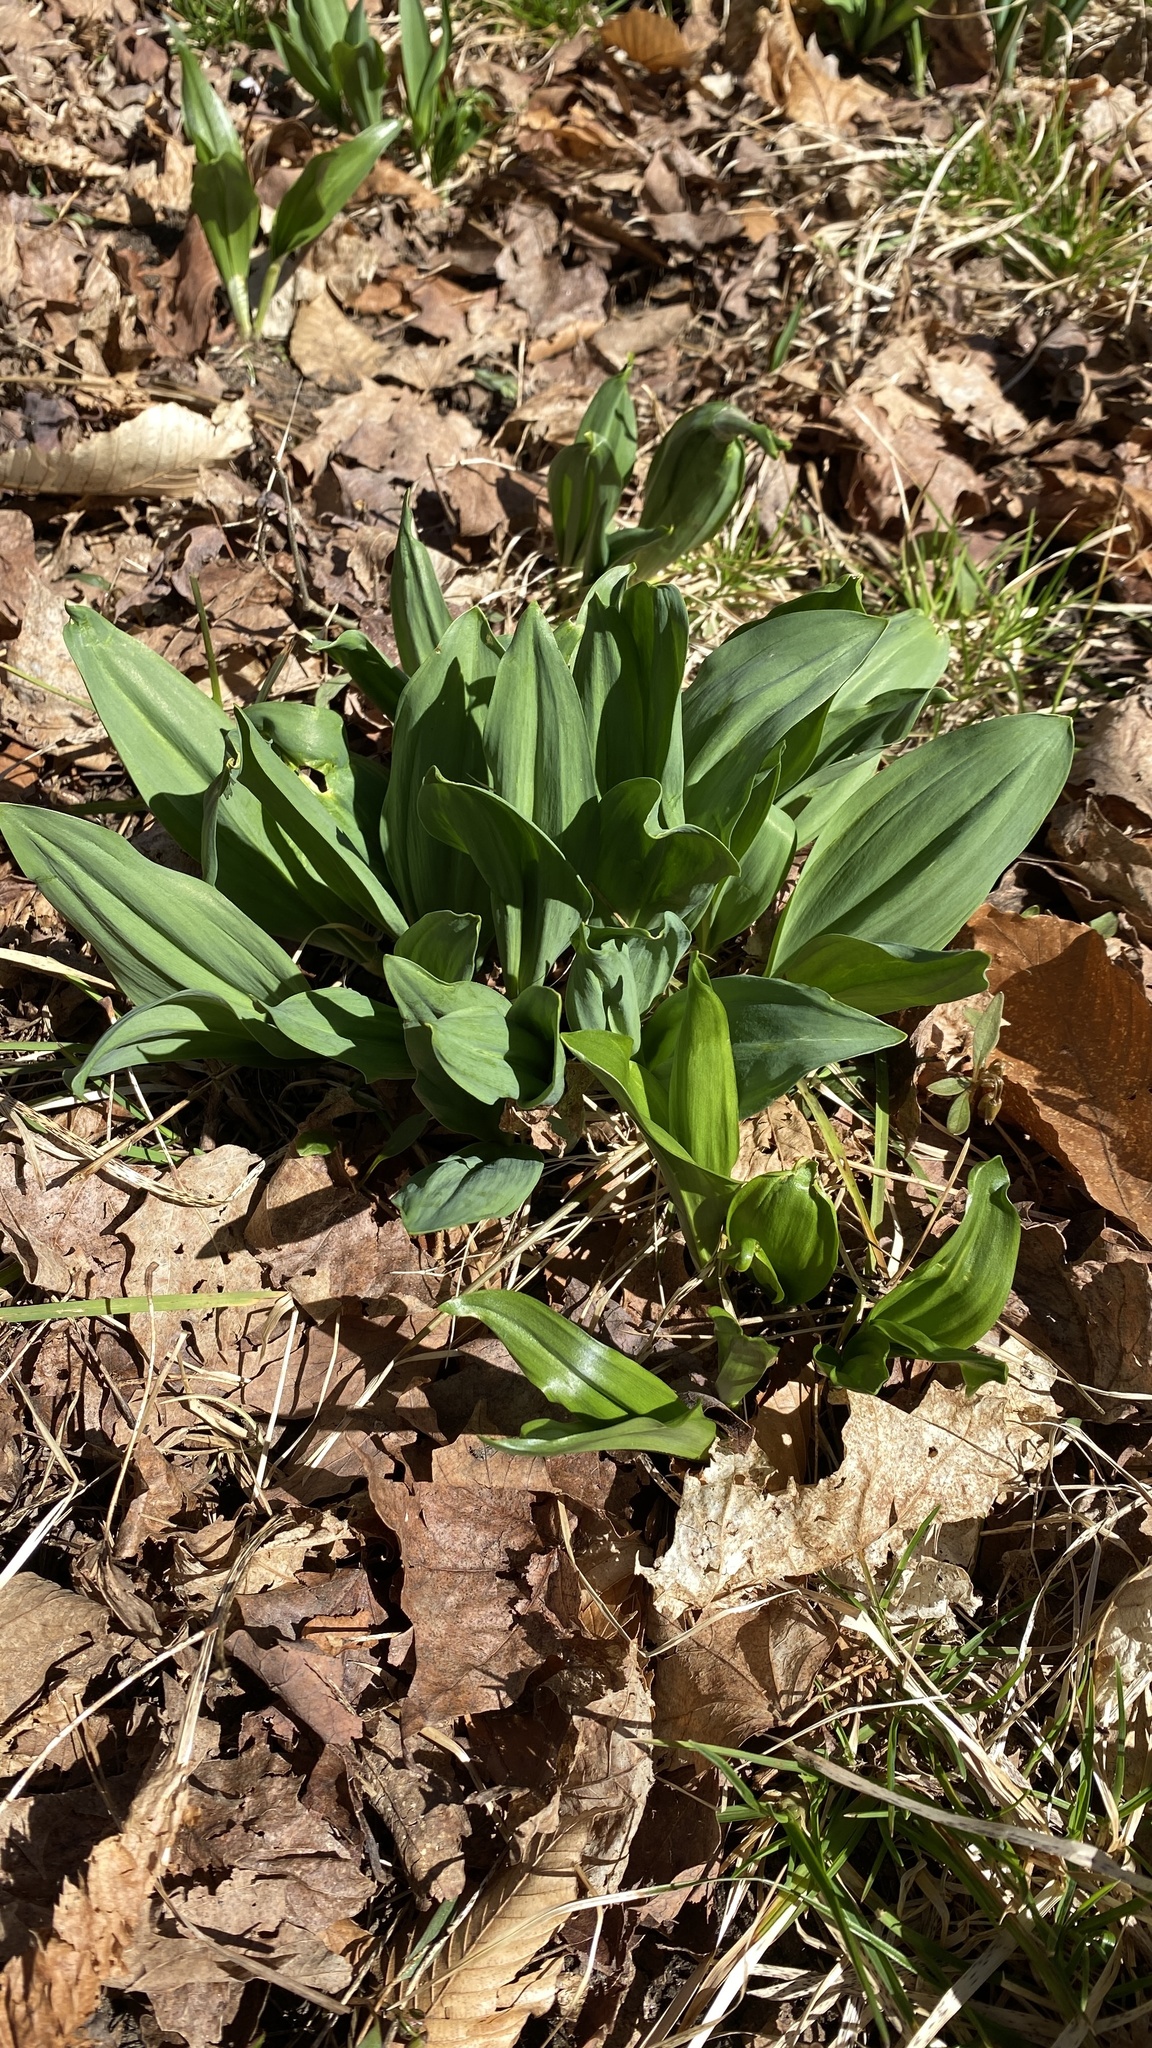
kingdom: Plantae
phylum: Tracheophyta
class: Liliopsida
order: Asparagales
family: Amaryllidaceae
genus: Allium
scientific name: Allium tricoccum
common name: Ramp
